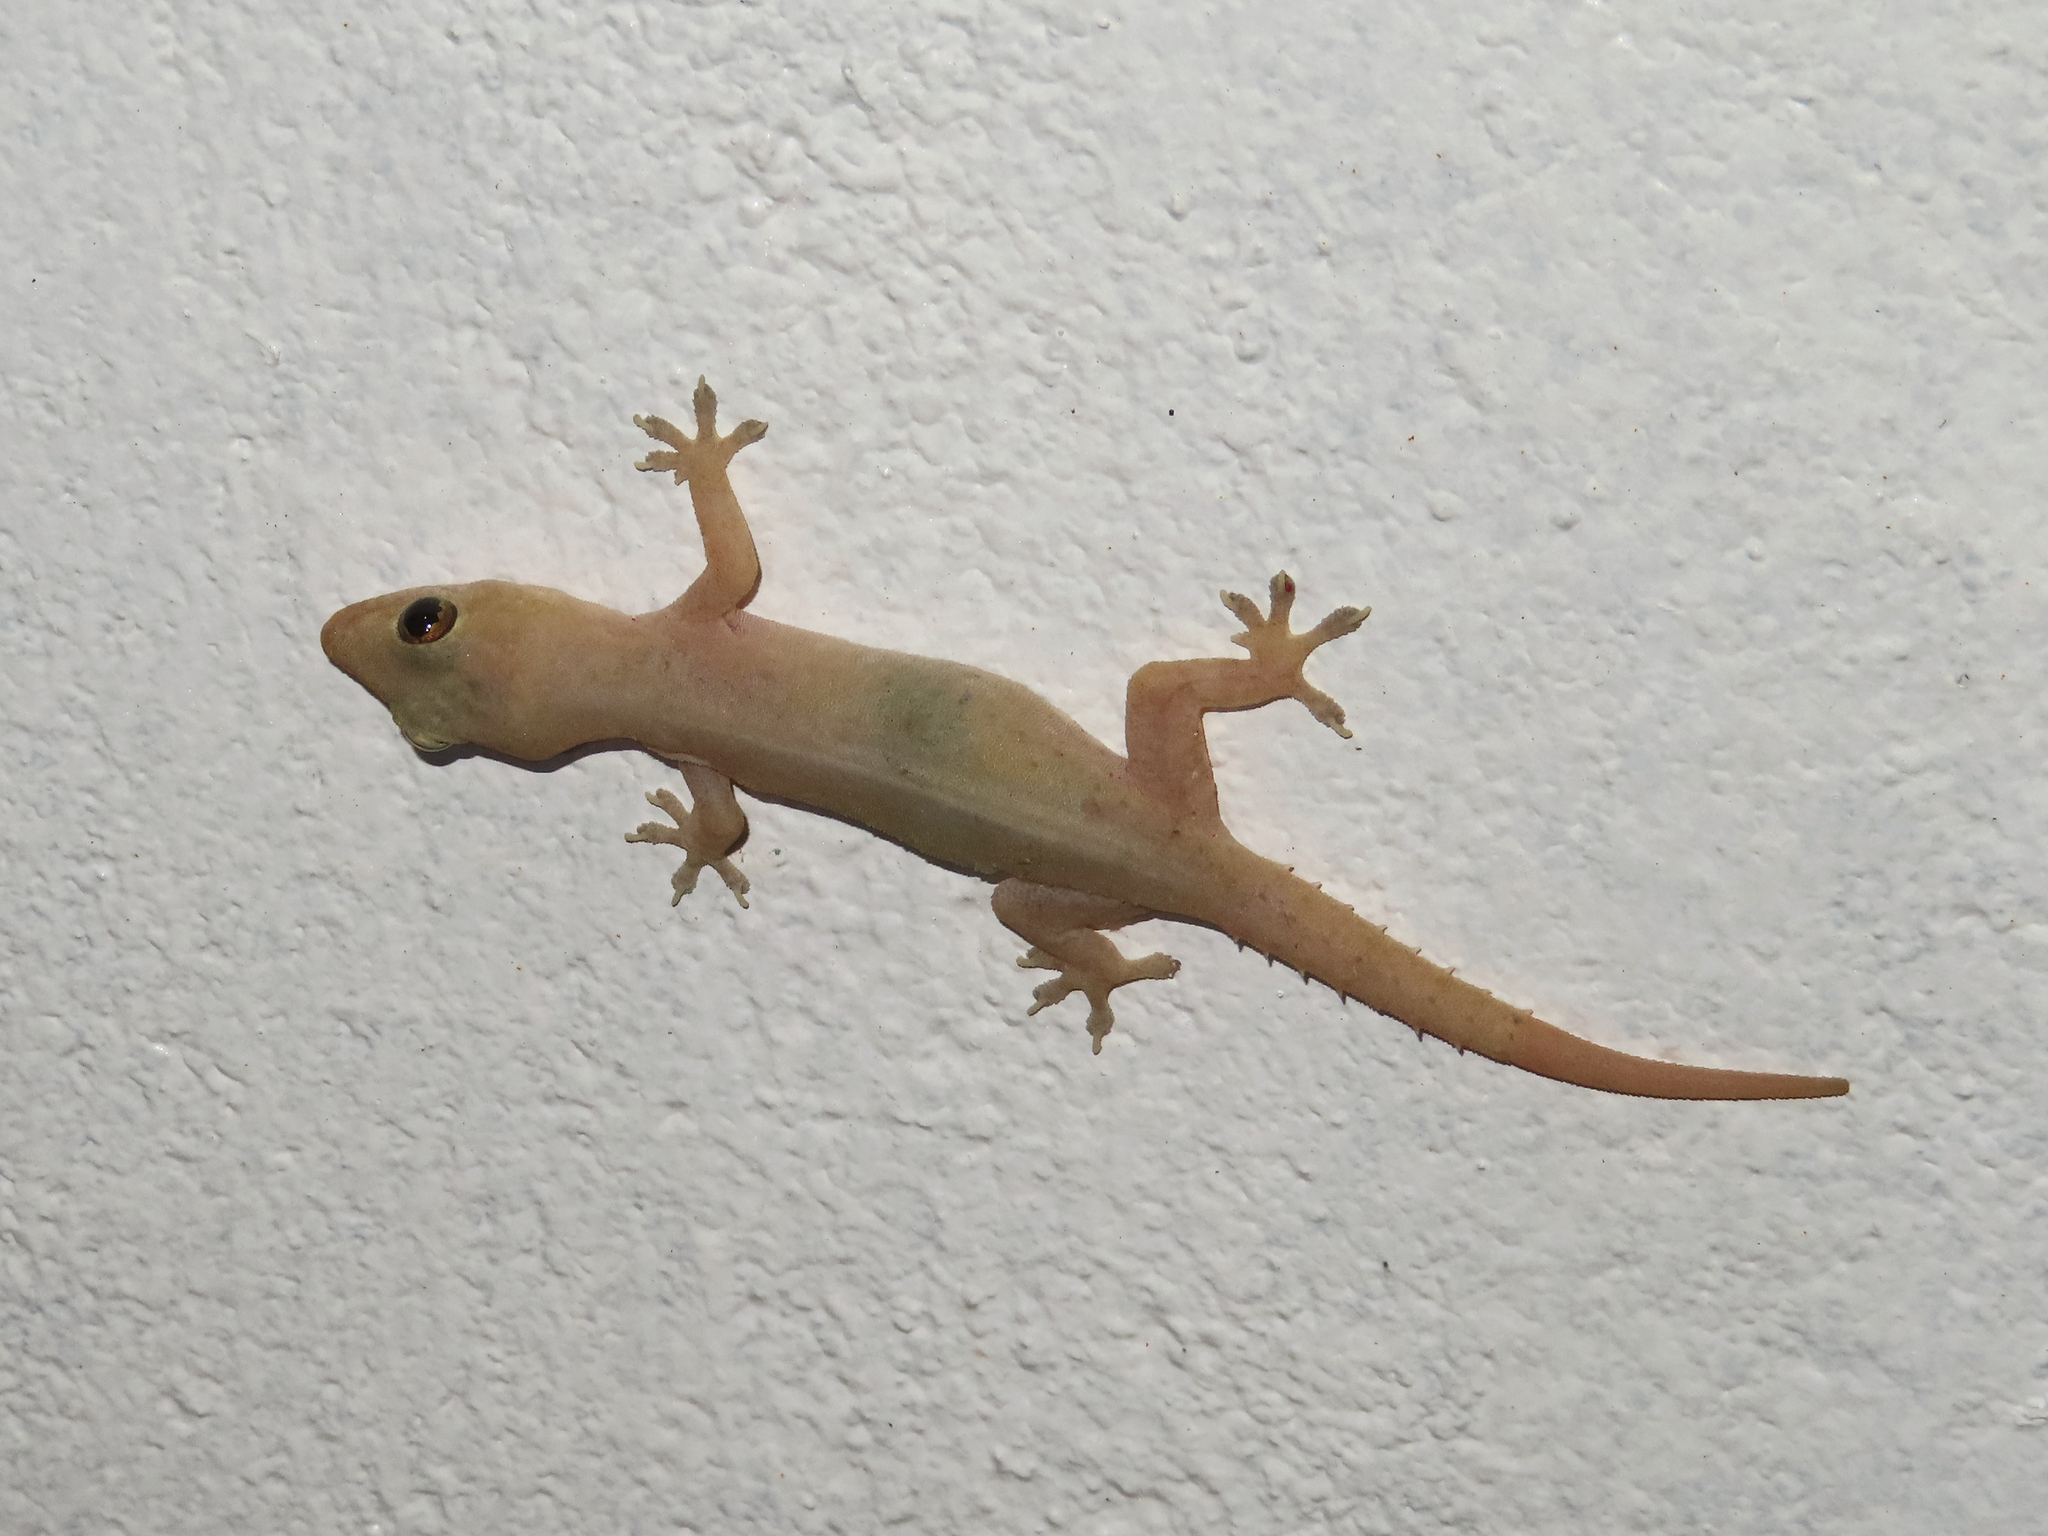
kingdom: Animalia
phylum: Chordata
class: Squamata
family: Gekkonidae
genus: Hemidactylus
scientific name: Hemidactylus frenatus
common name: Common house gecko
